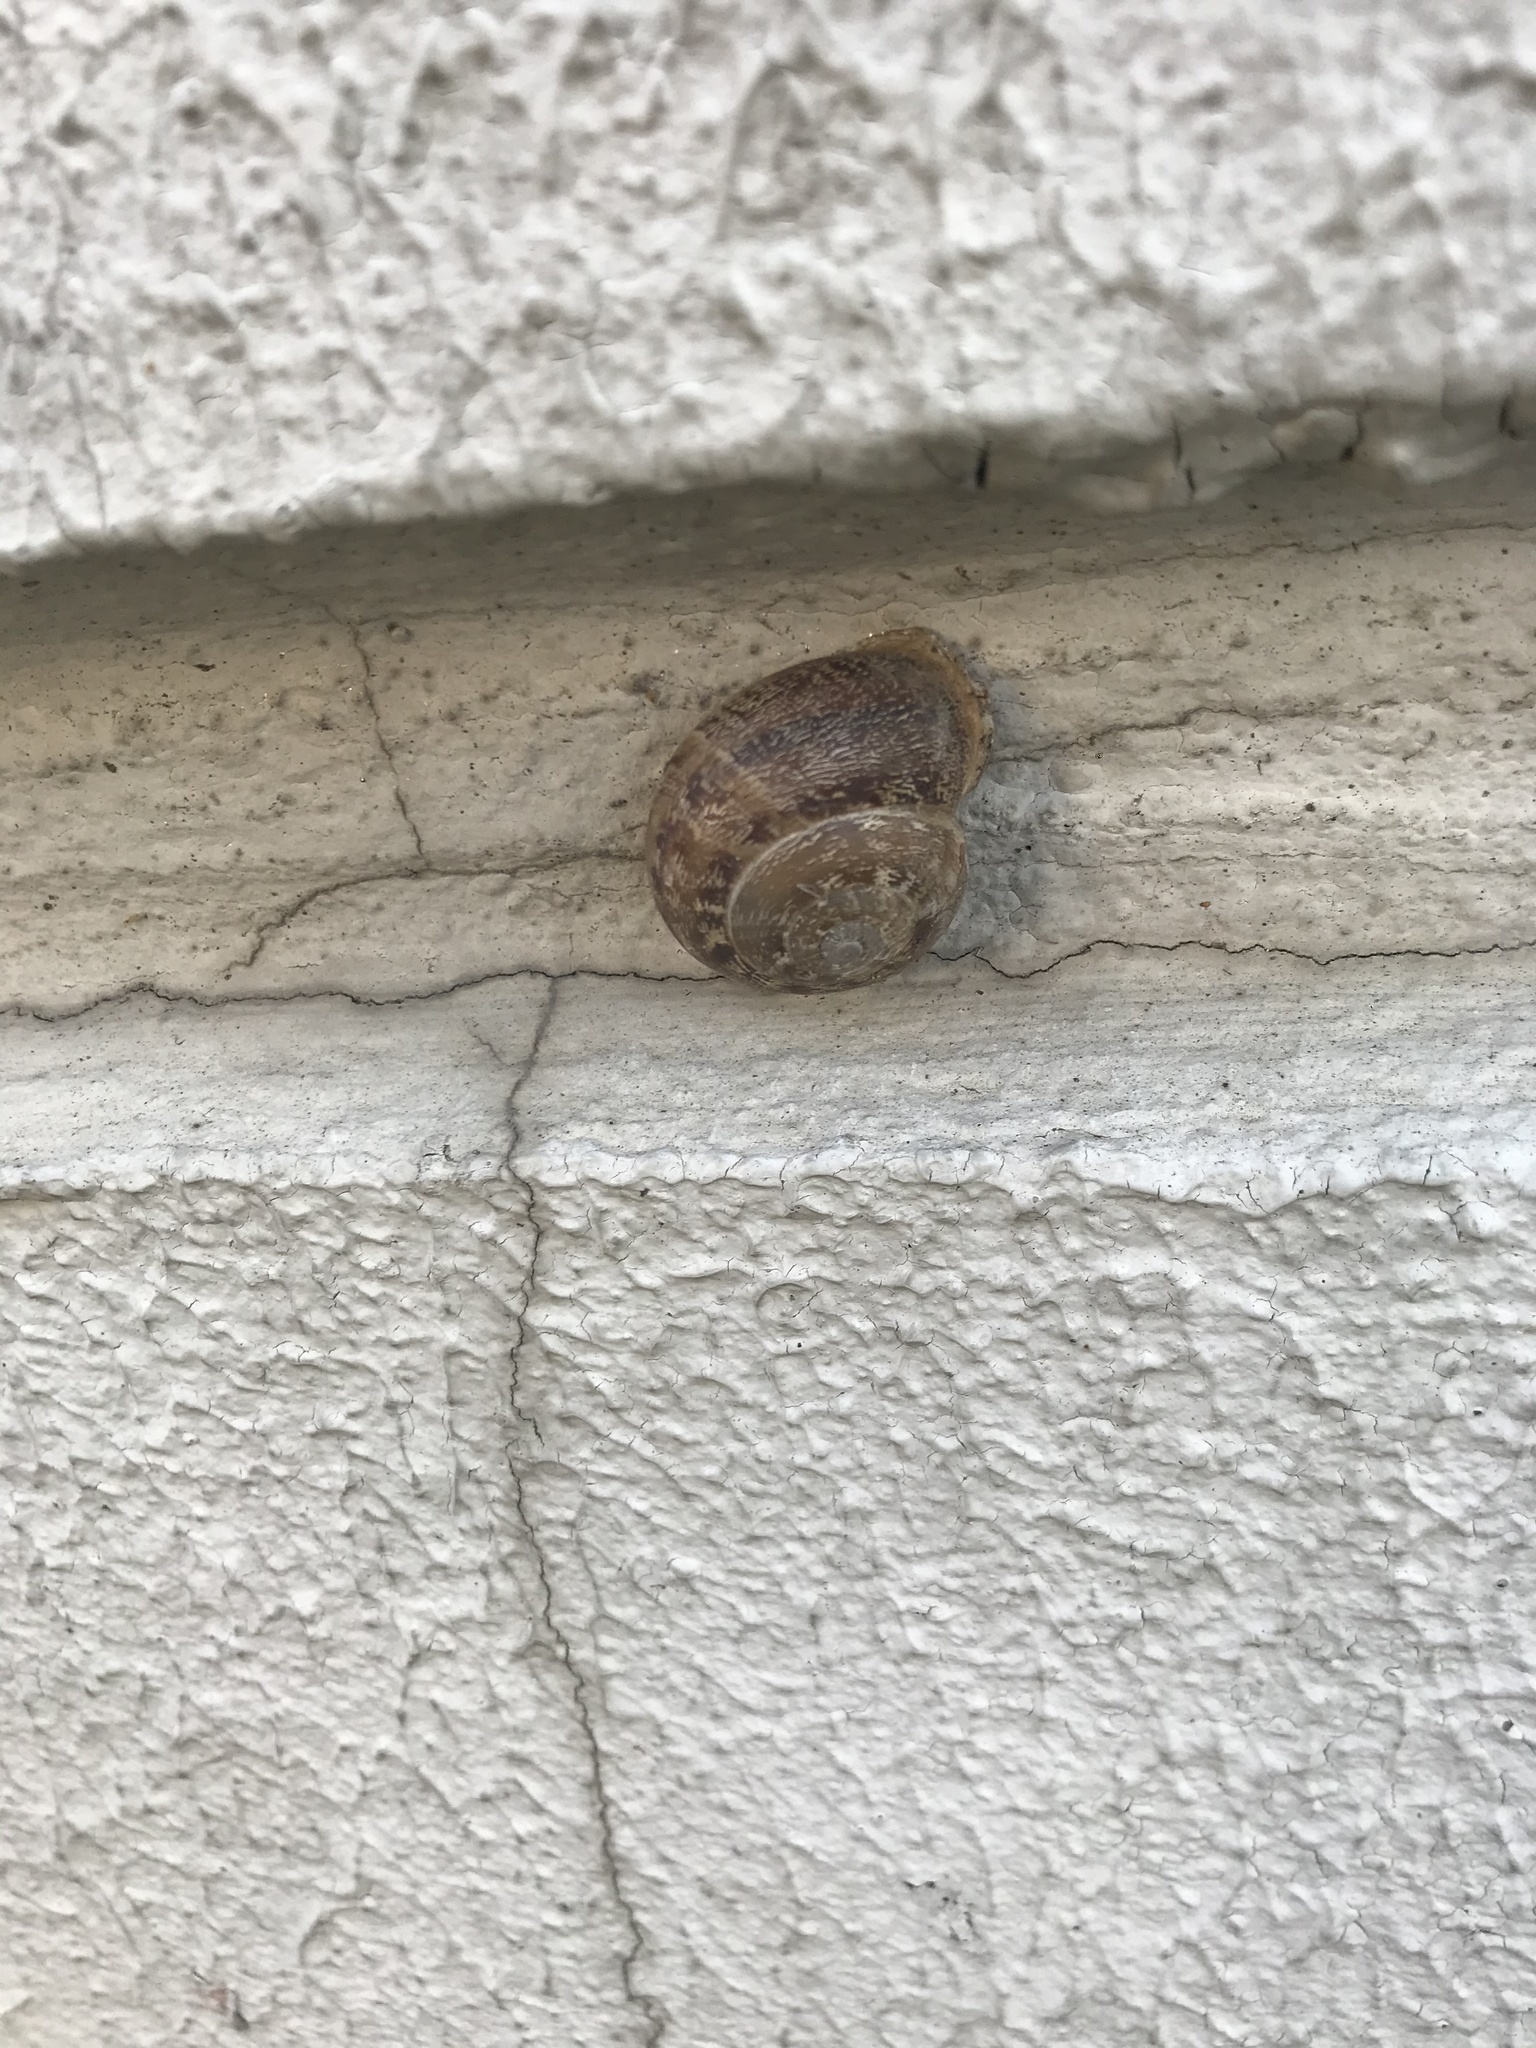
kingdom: Animalia
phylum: Mollusca
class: Gastropoda
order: Stylommatophora
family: Helicidae
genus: Eobania
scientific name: Eobania vermiculata
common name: Chocolateband snail
